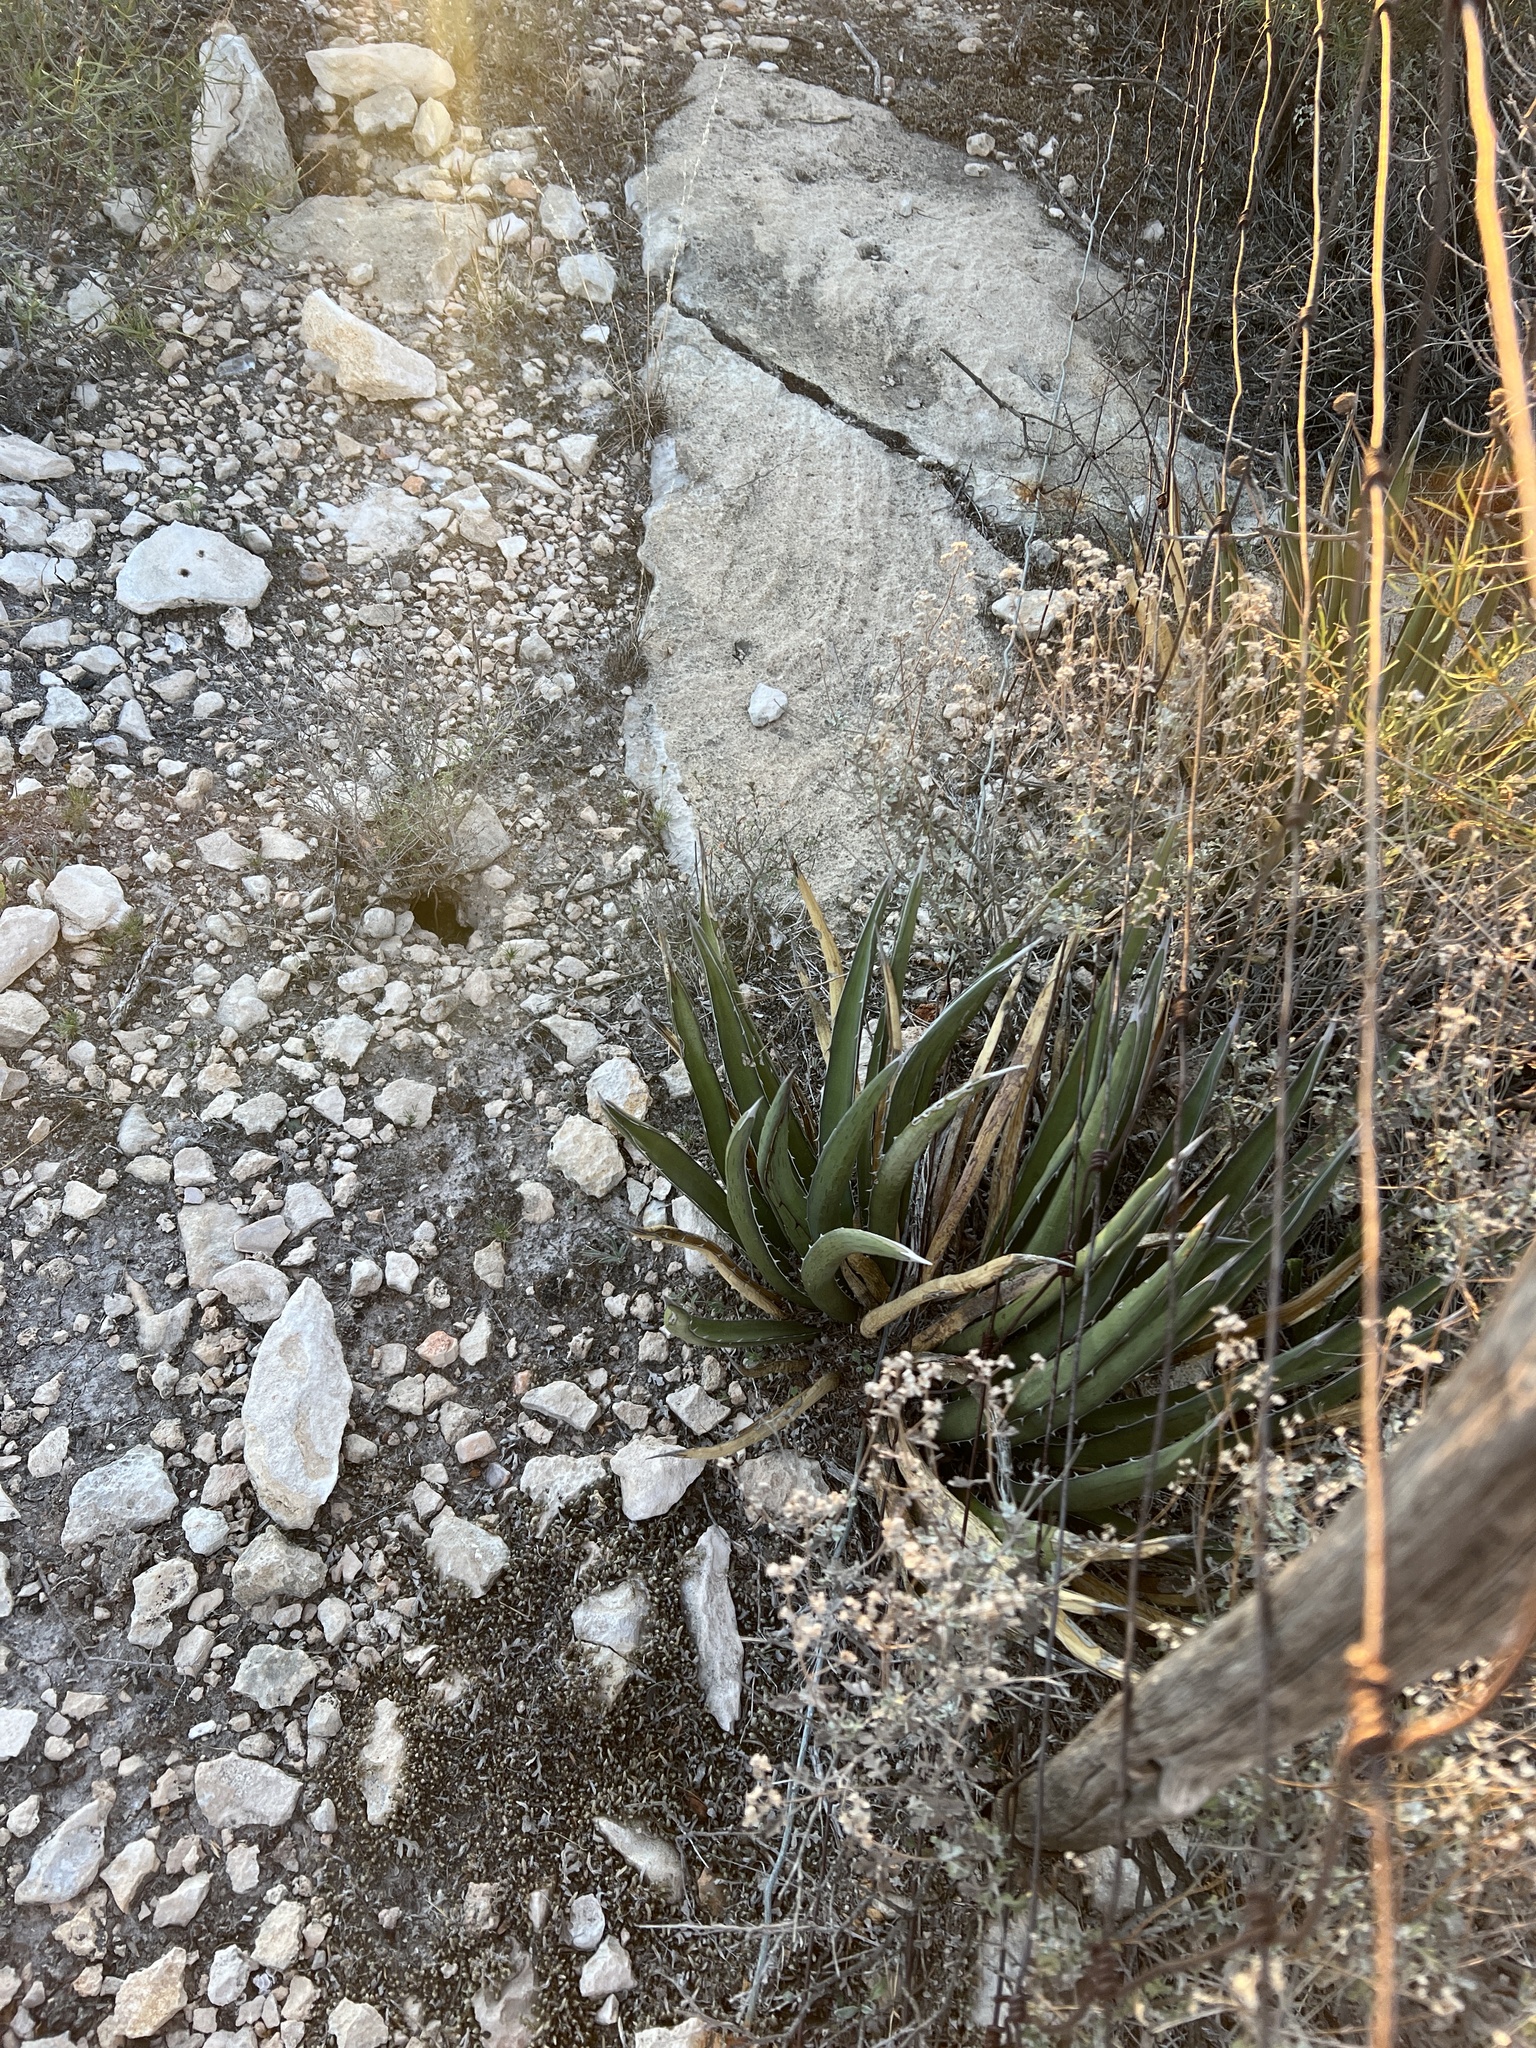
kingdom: Plantae
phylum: Tracheophyta
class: Liliopsida
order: Asparagales
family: Asparagaceae
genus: Agave
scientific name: Agave lechuguilla
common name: Lecheguilla agave
